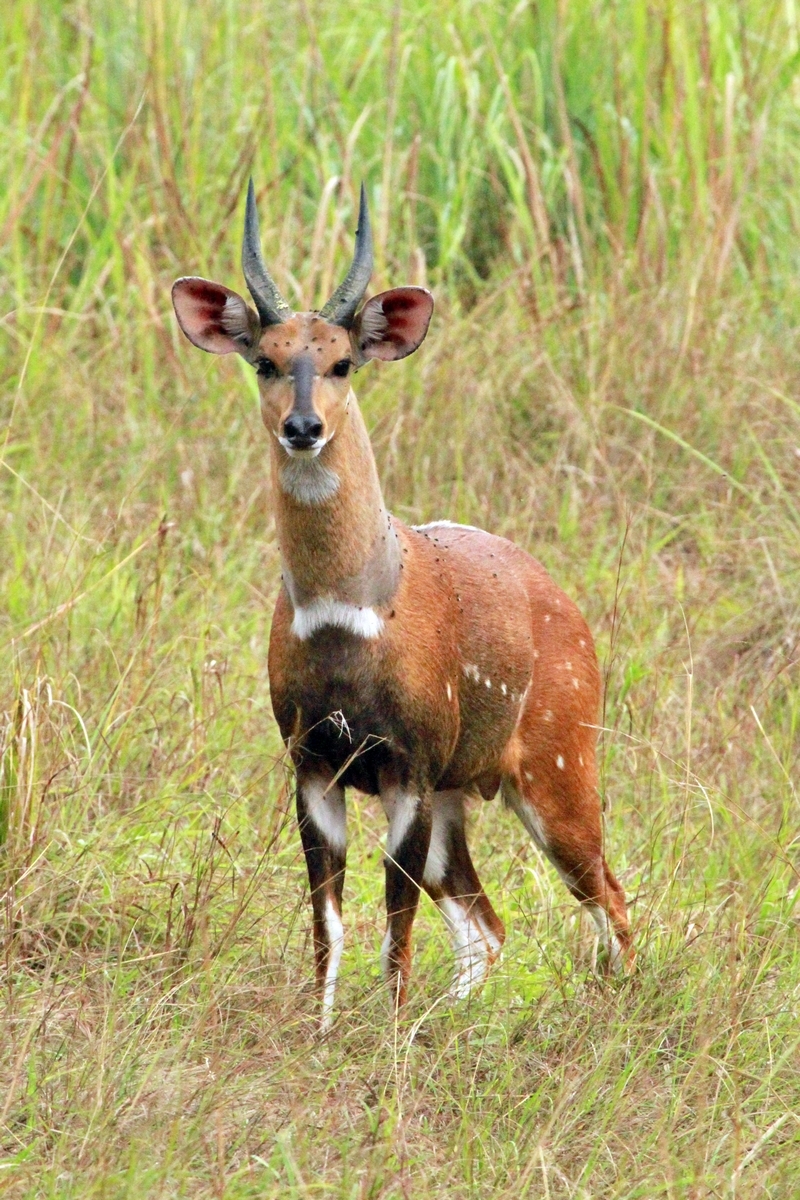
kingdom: Animalia
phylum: Chordata
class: Mammalia
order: Artiodactyla
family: Bovidae
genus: Tragelaphus
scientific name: Tragelaphus scriptus
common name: Bushbuck
